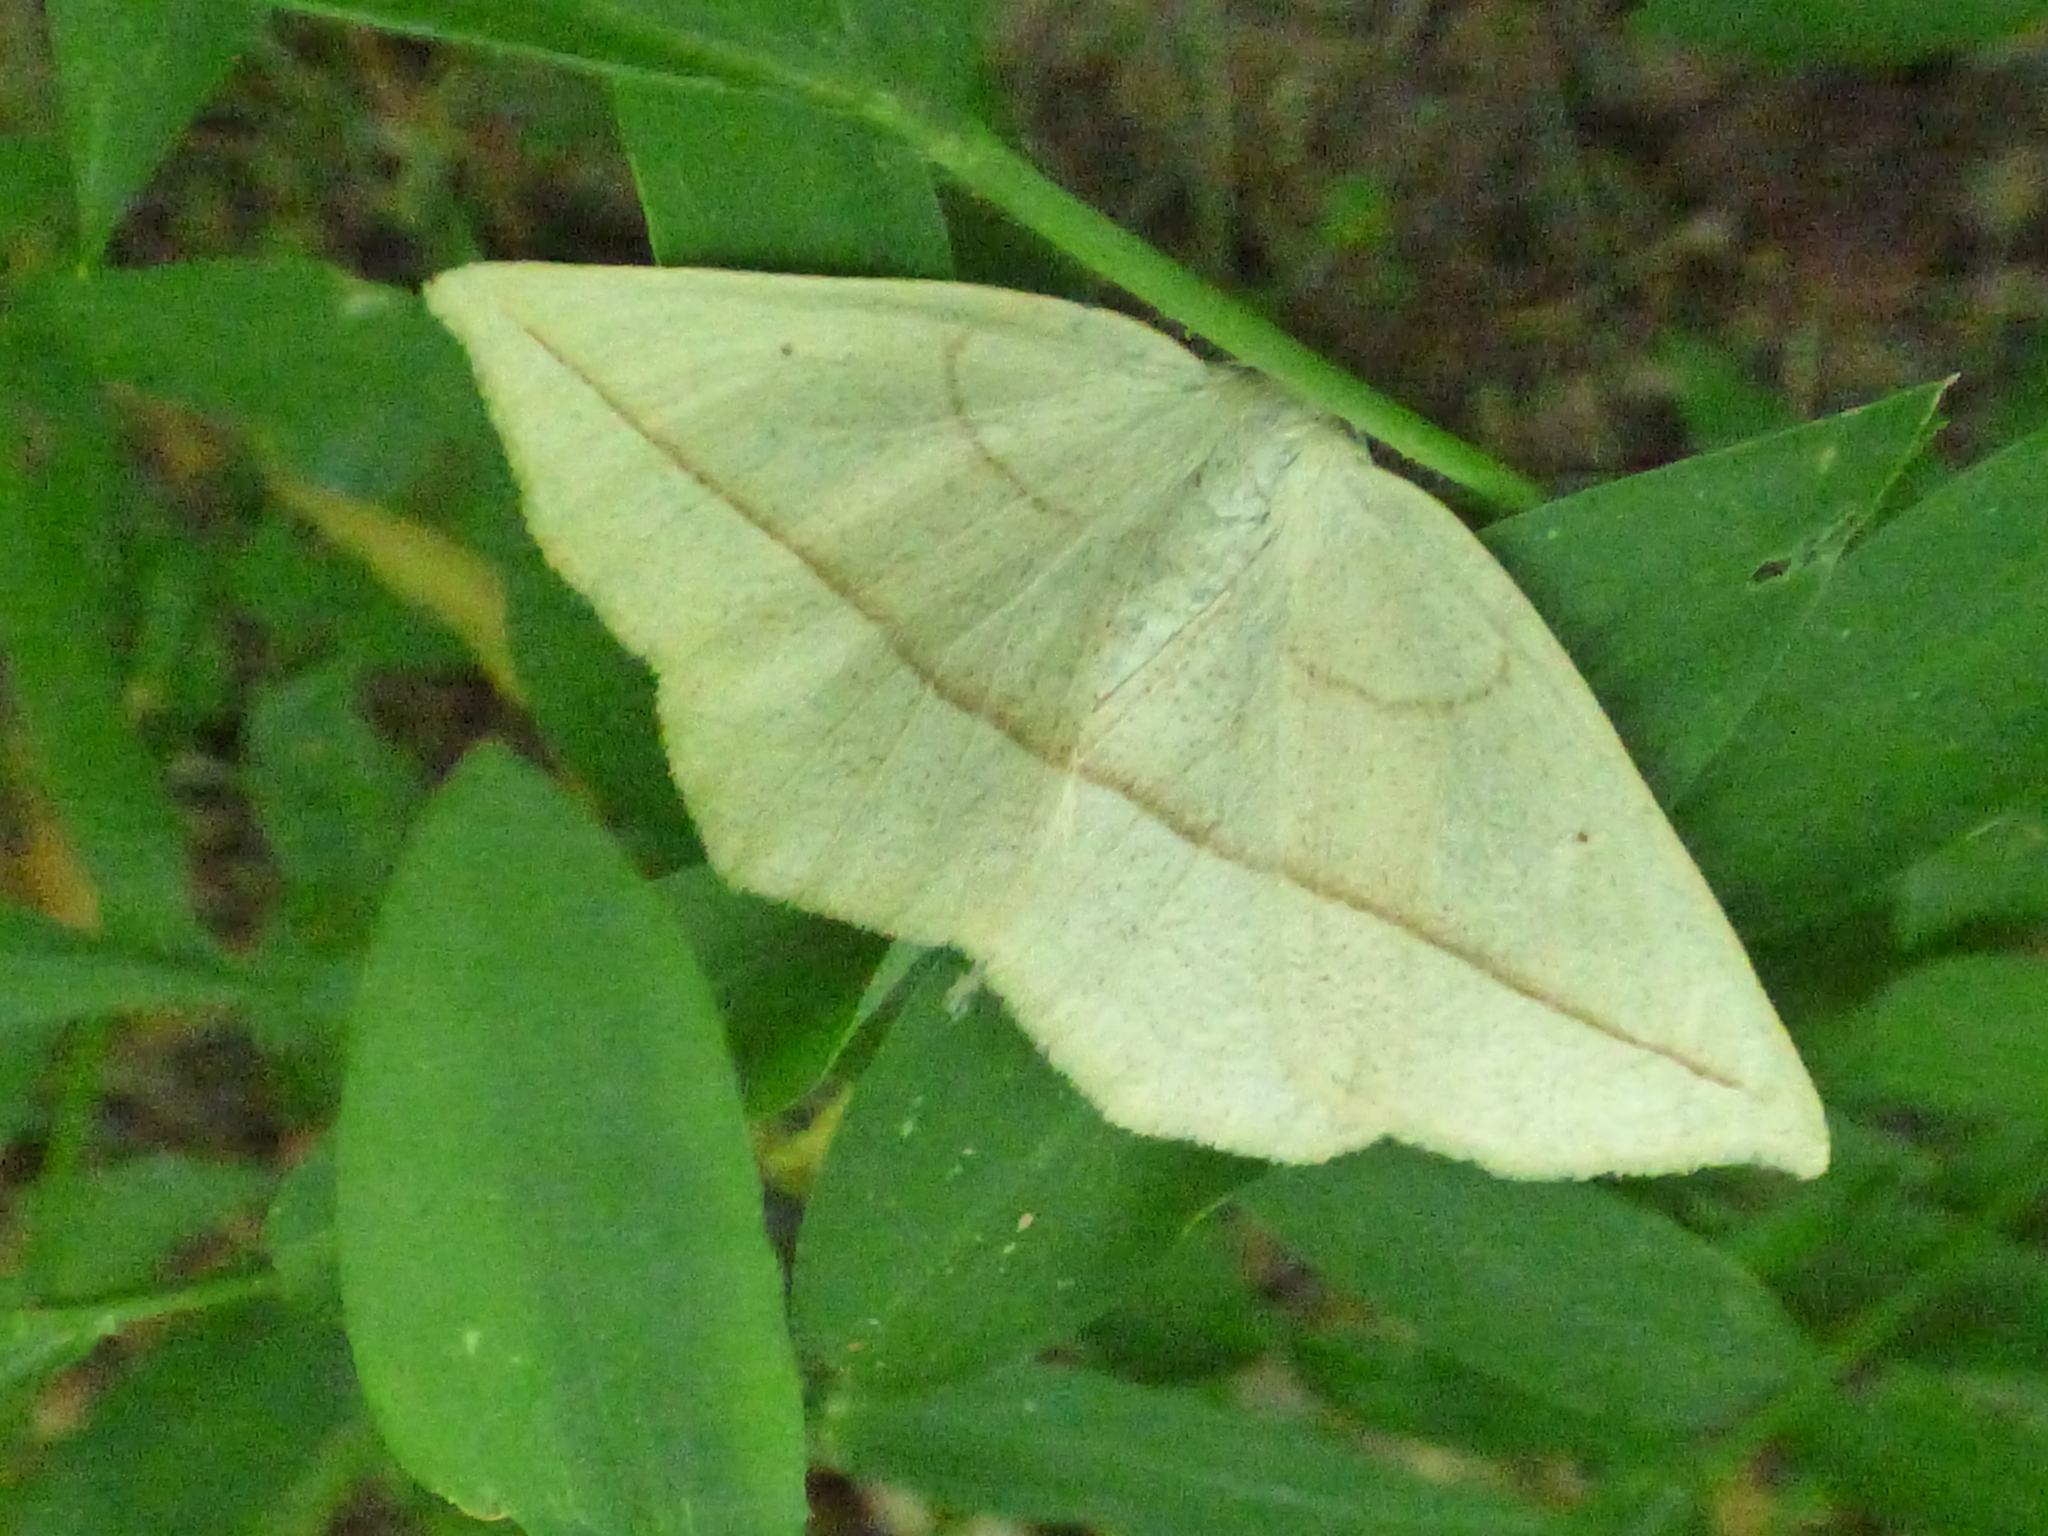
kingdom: Animalia
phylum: Arthropoda
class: Insecta
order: Lepidoptera
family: Geometridae
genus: Eusarca
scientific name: Eusarca confusaria
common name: Confused eusarca
